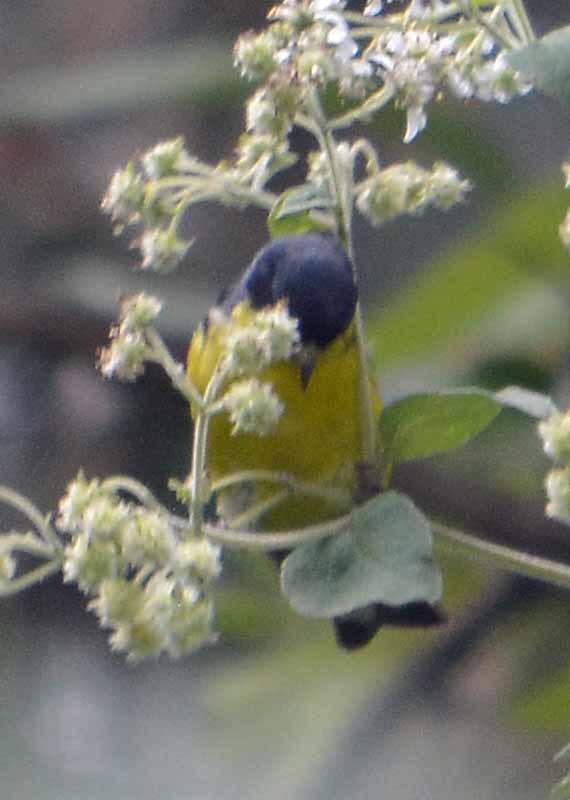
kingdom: Animalia
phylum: Chordata
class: Aves
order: Passeriformes
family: Fringillidae
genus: Spinus
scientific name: Spinus psaltria
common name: Lesser goldfinch
